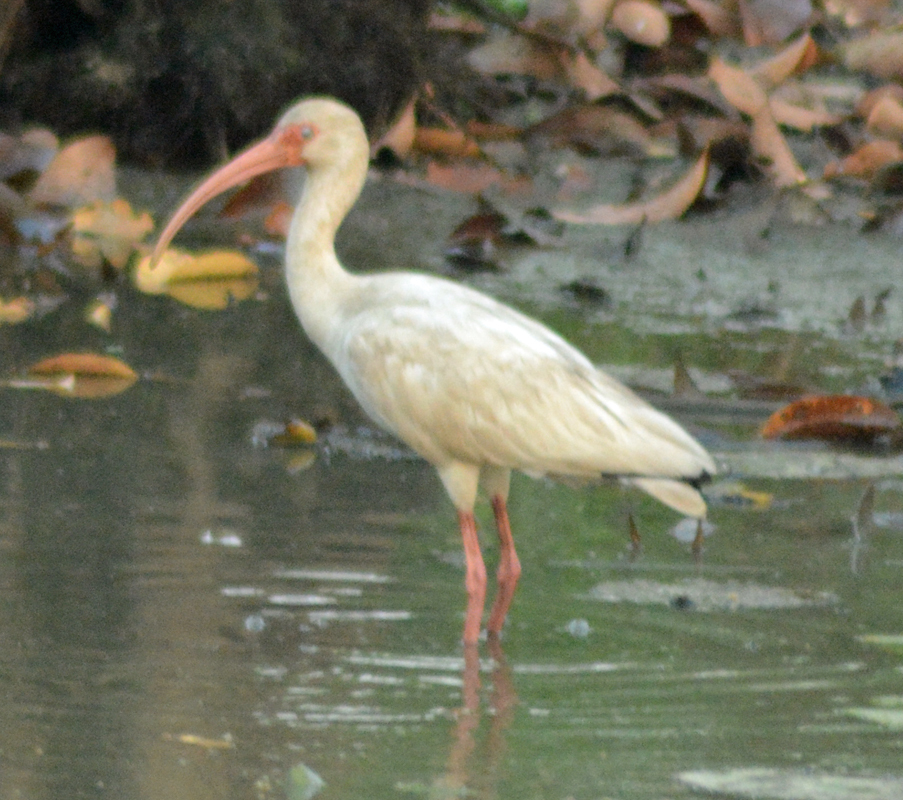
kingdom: Animalia
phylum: Chordata
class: Aves
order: Pelecaniformes
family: Threskiornithidae
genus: Eudocimus
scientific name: Eudocimus albus
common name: White ibis
